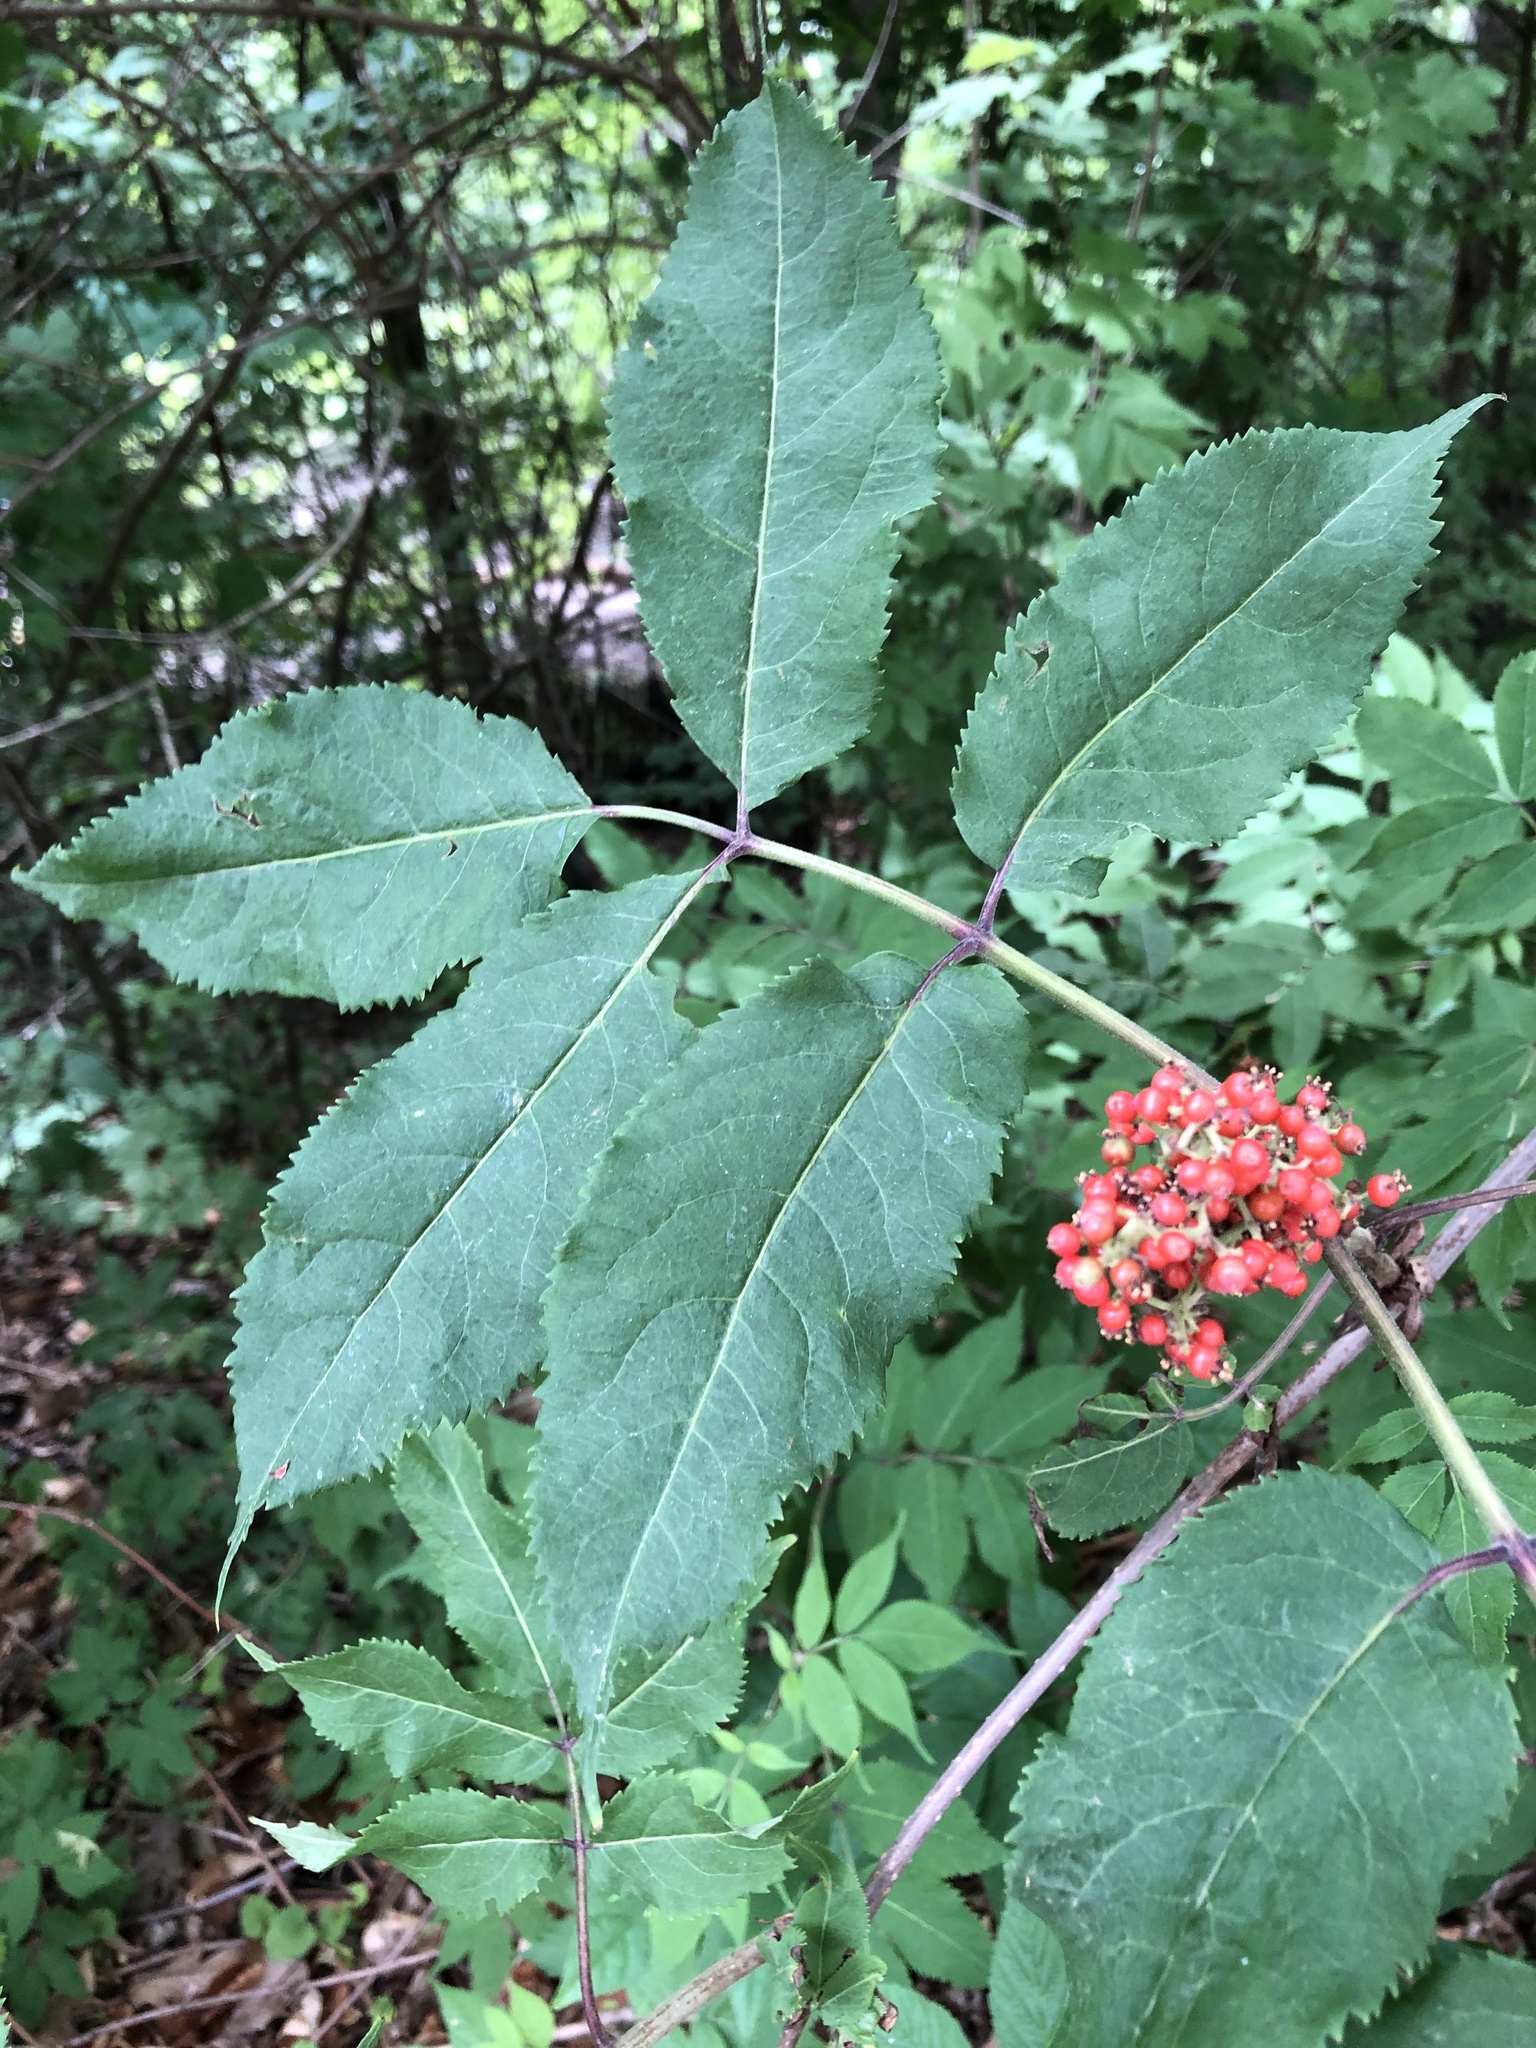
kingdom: Plantae
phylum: Tracheophyta
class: Magnoliopsida
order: Dipsacales
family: Viburnaceae
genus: Sambucus
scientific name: Sambucus racemosa
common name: Red-berried elder
